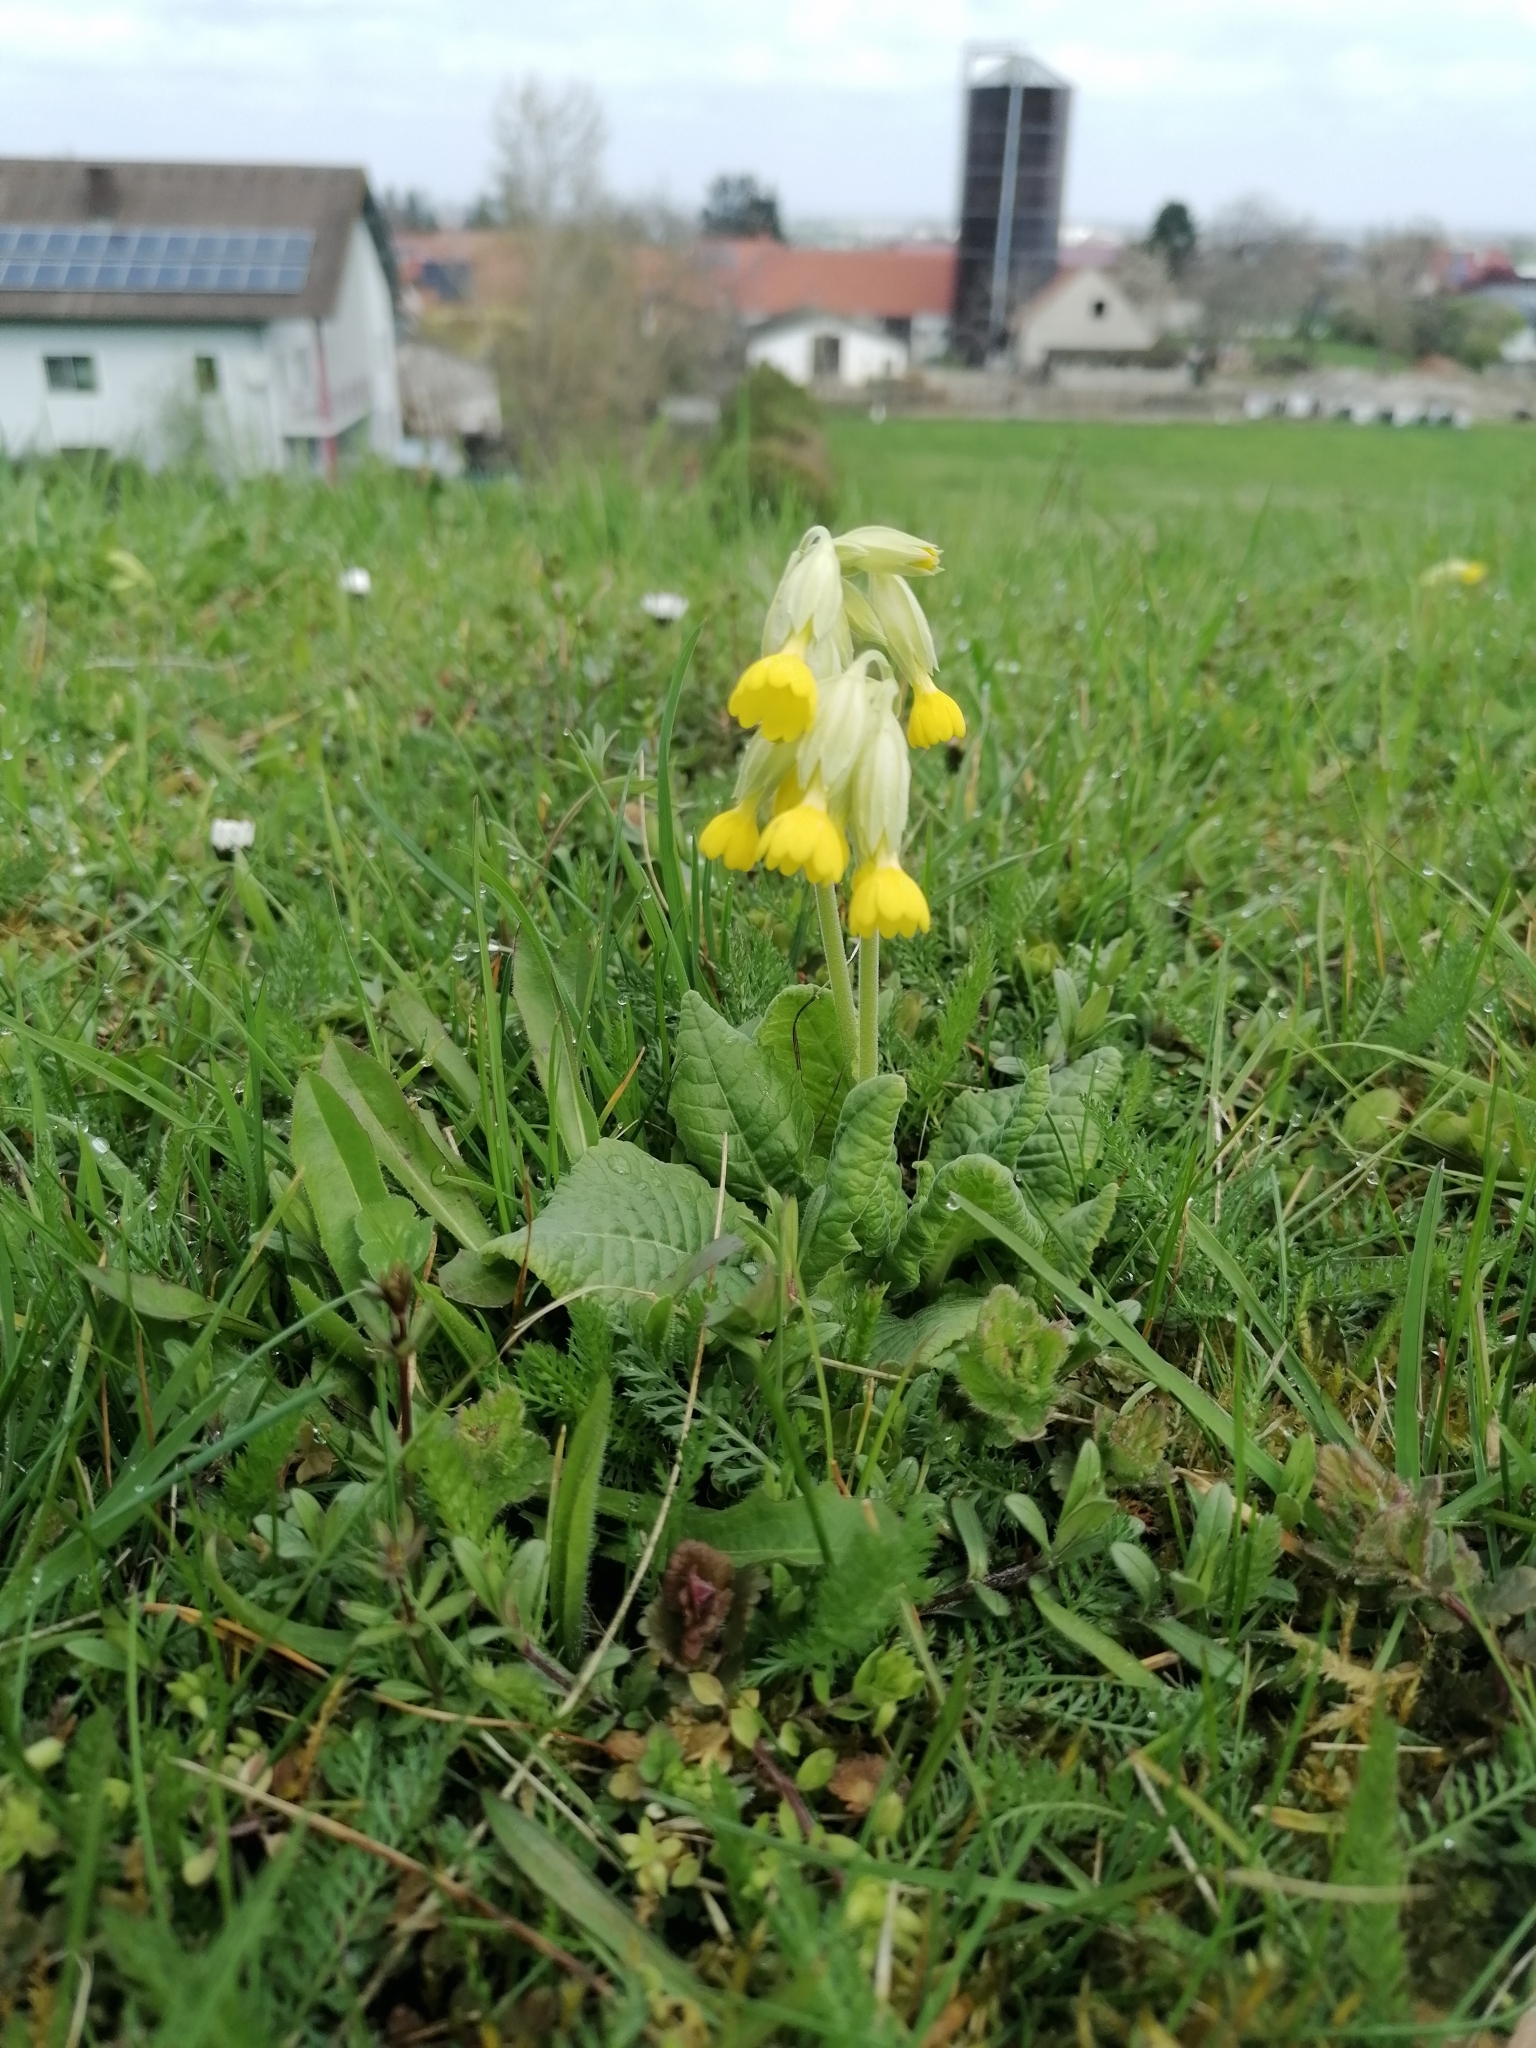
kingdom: Plantae
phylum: Tracheophyta
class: Magnoliopsida
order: Ericales
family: Primulaceae
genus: Primula
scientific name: Primula veris
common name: Cowslip
